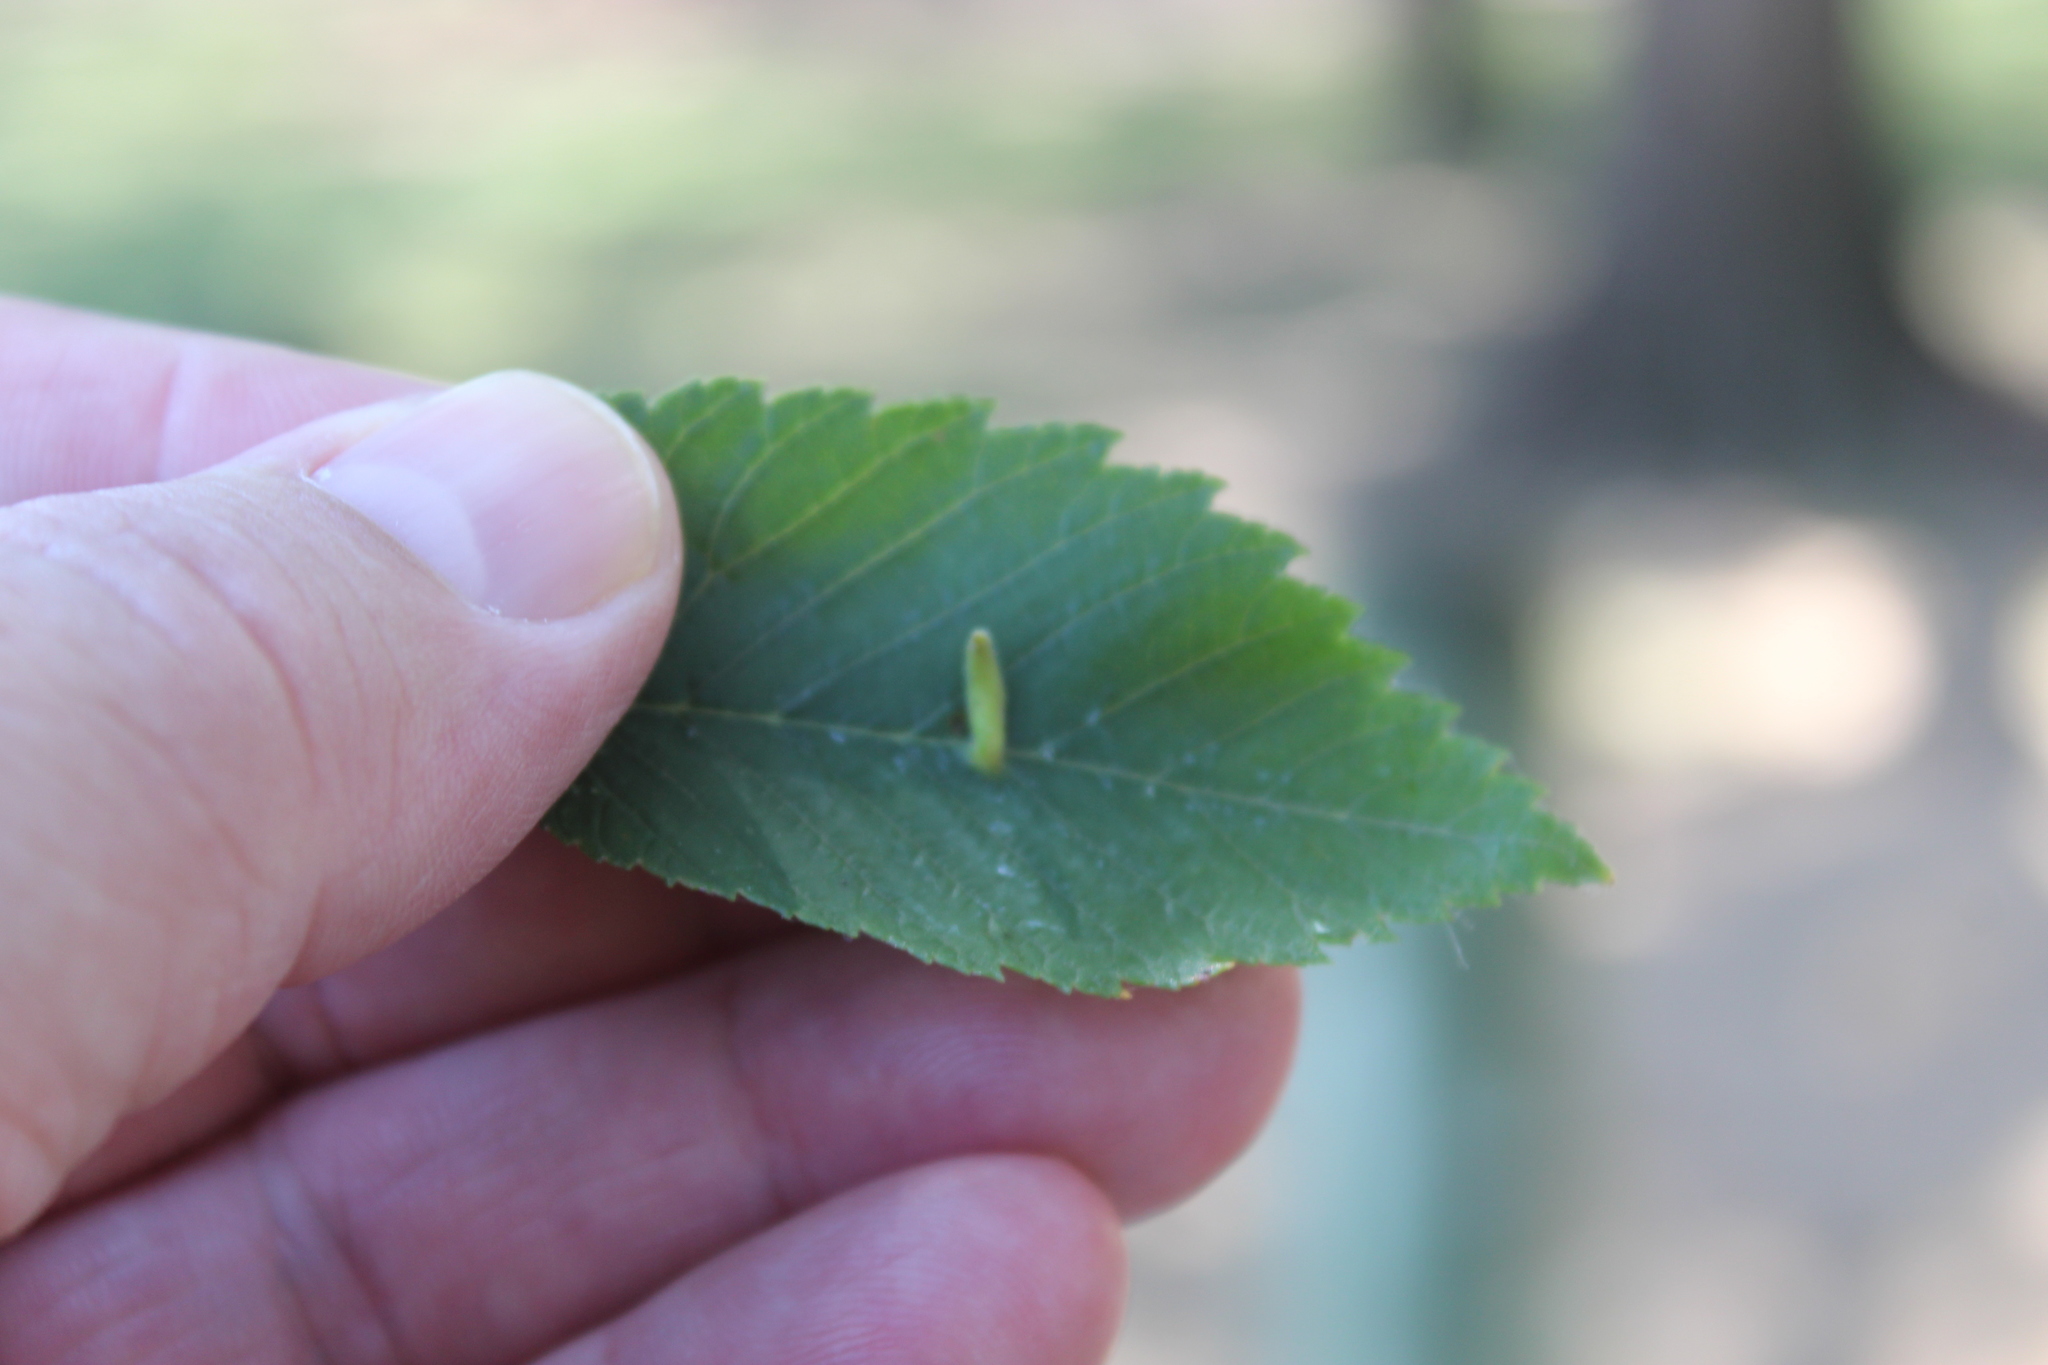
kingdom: Animalia
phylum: Arthropoda
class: Arachnida
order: Trombidiformes
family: Eriophyidae
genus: Aceria
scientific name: Aceria
